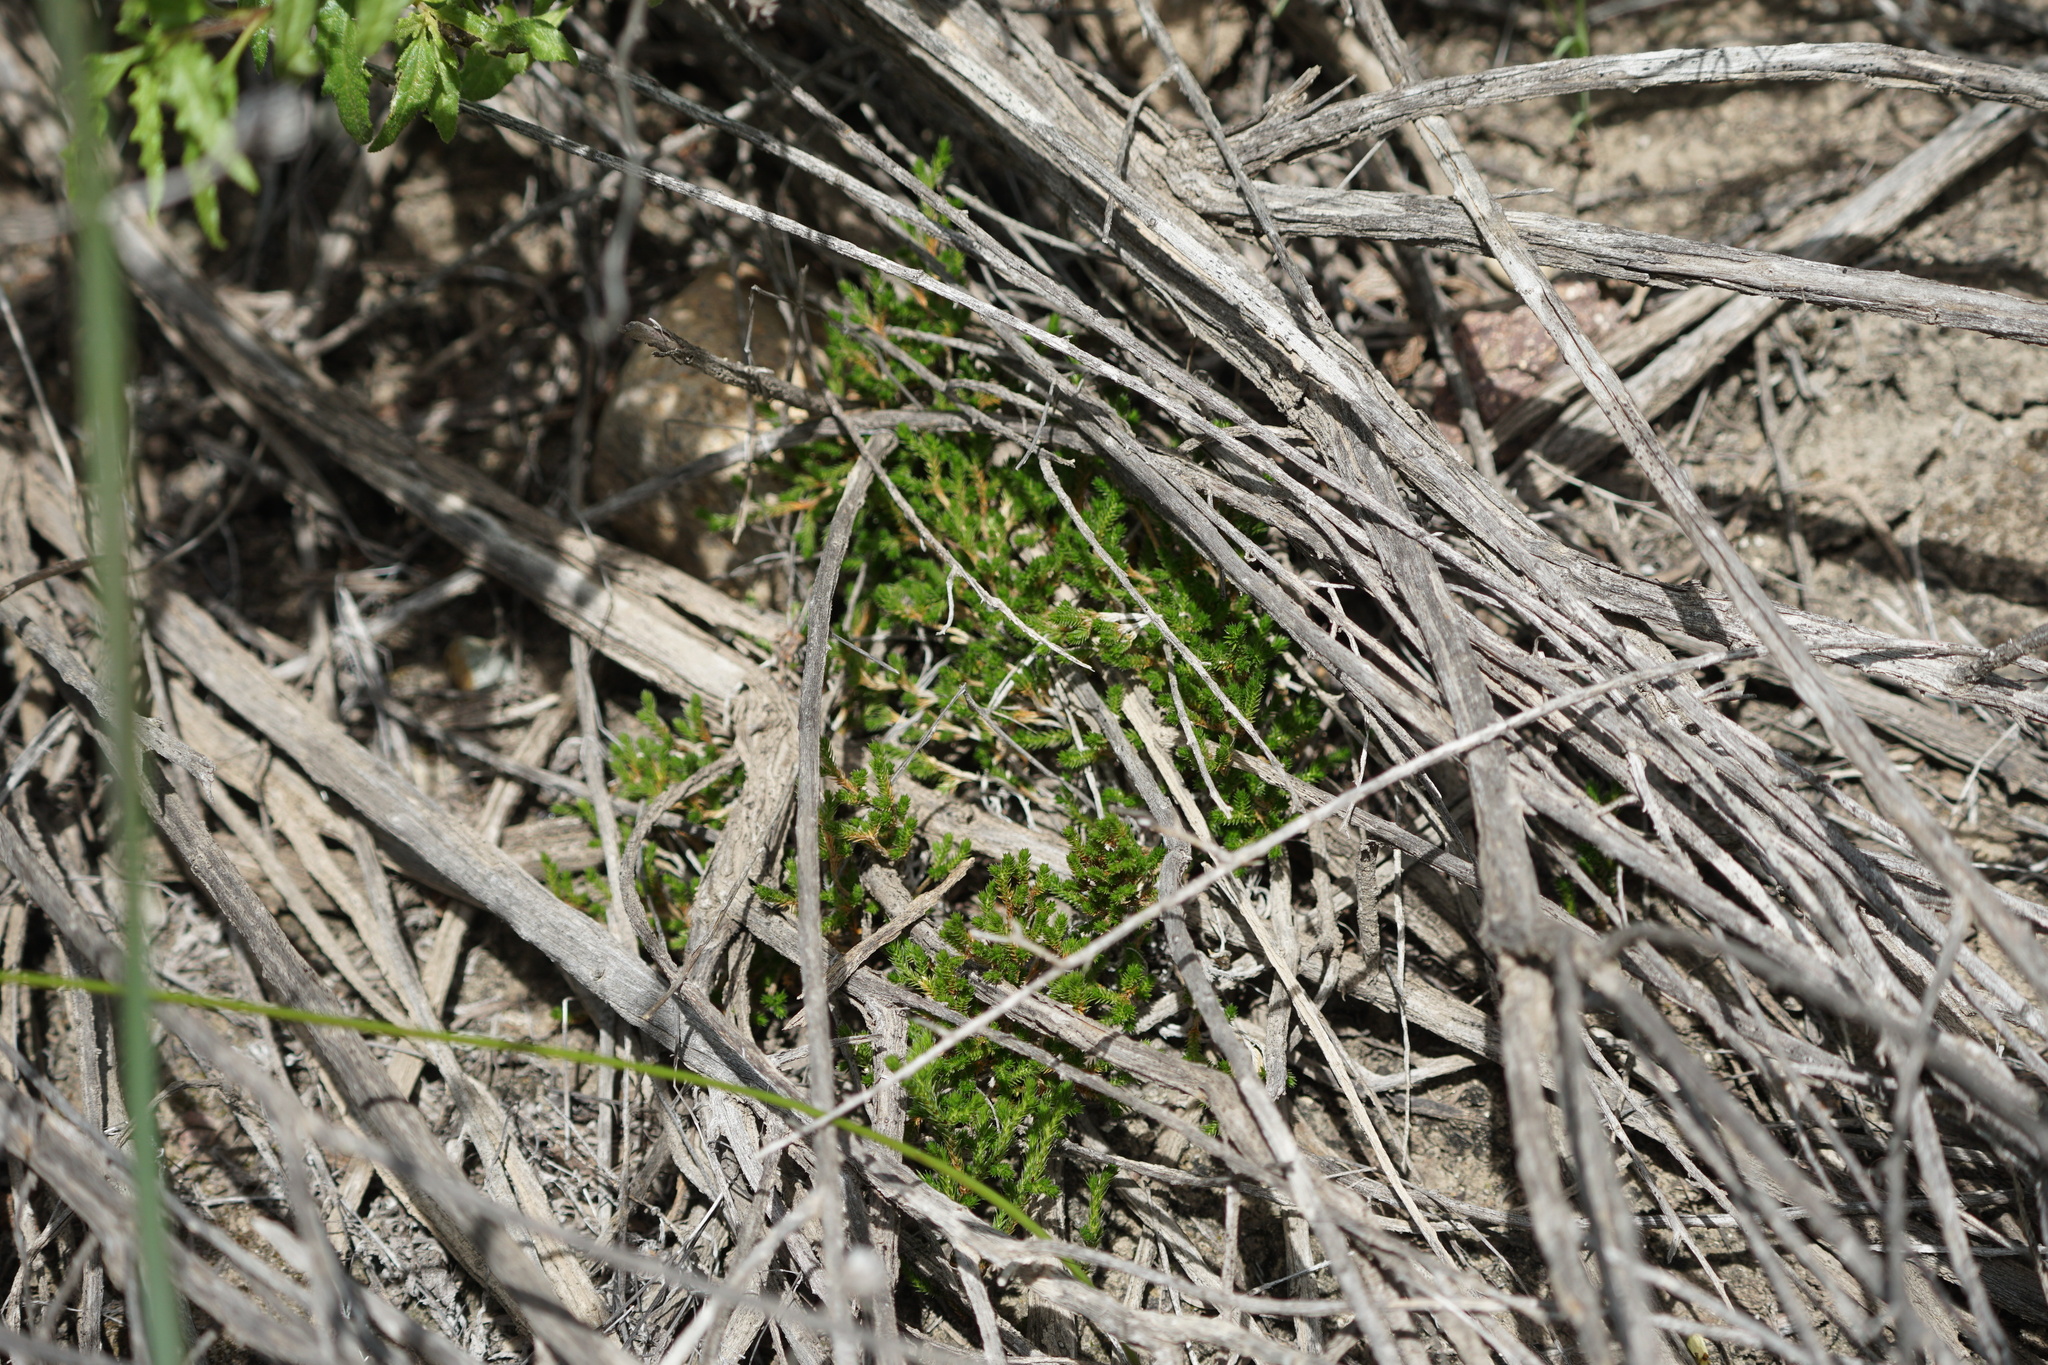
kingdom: Plantae
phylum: Tracheophyta
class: Lycopodiopsida
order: Selaginellales
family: Selaginellaceae
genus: Selaginella
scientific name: Selaginella bigelovii
